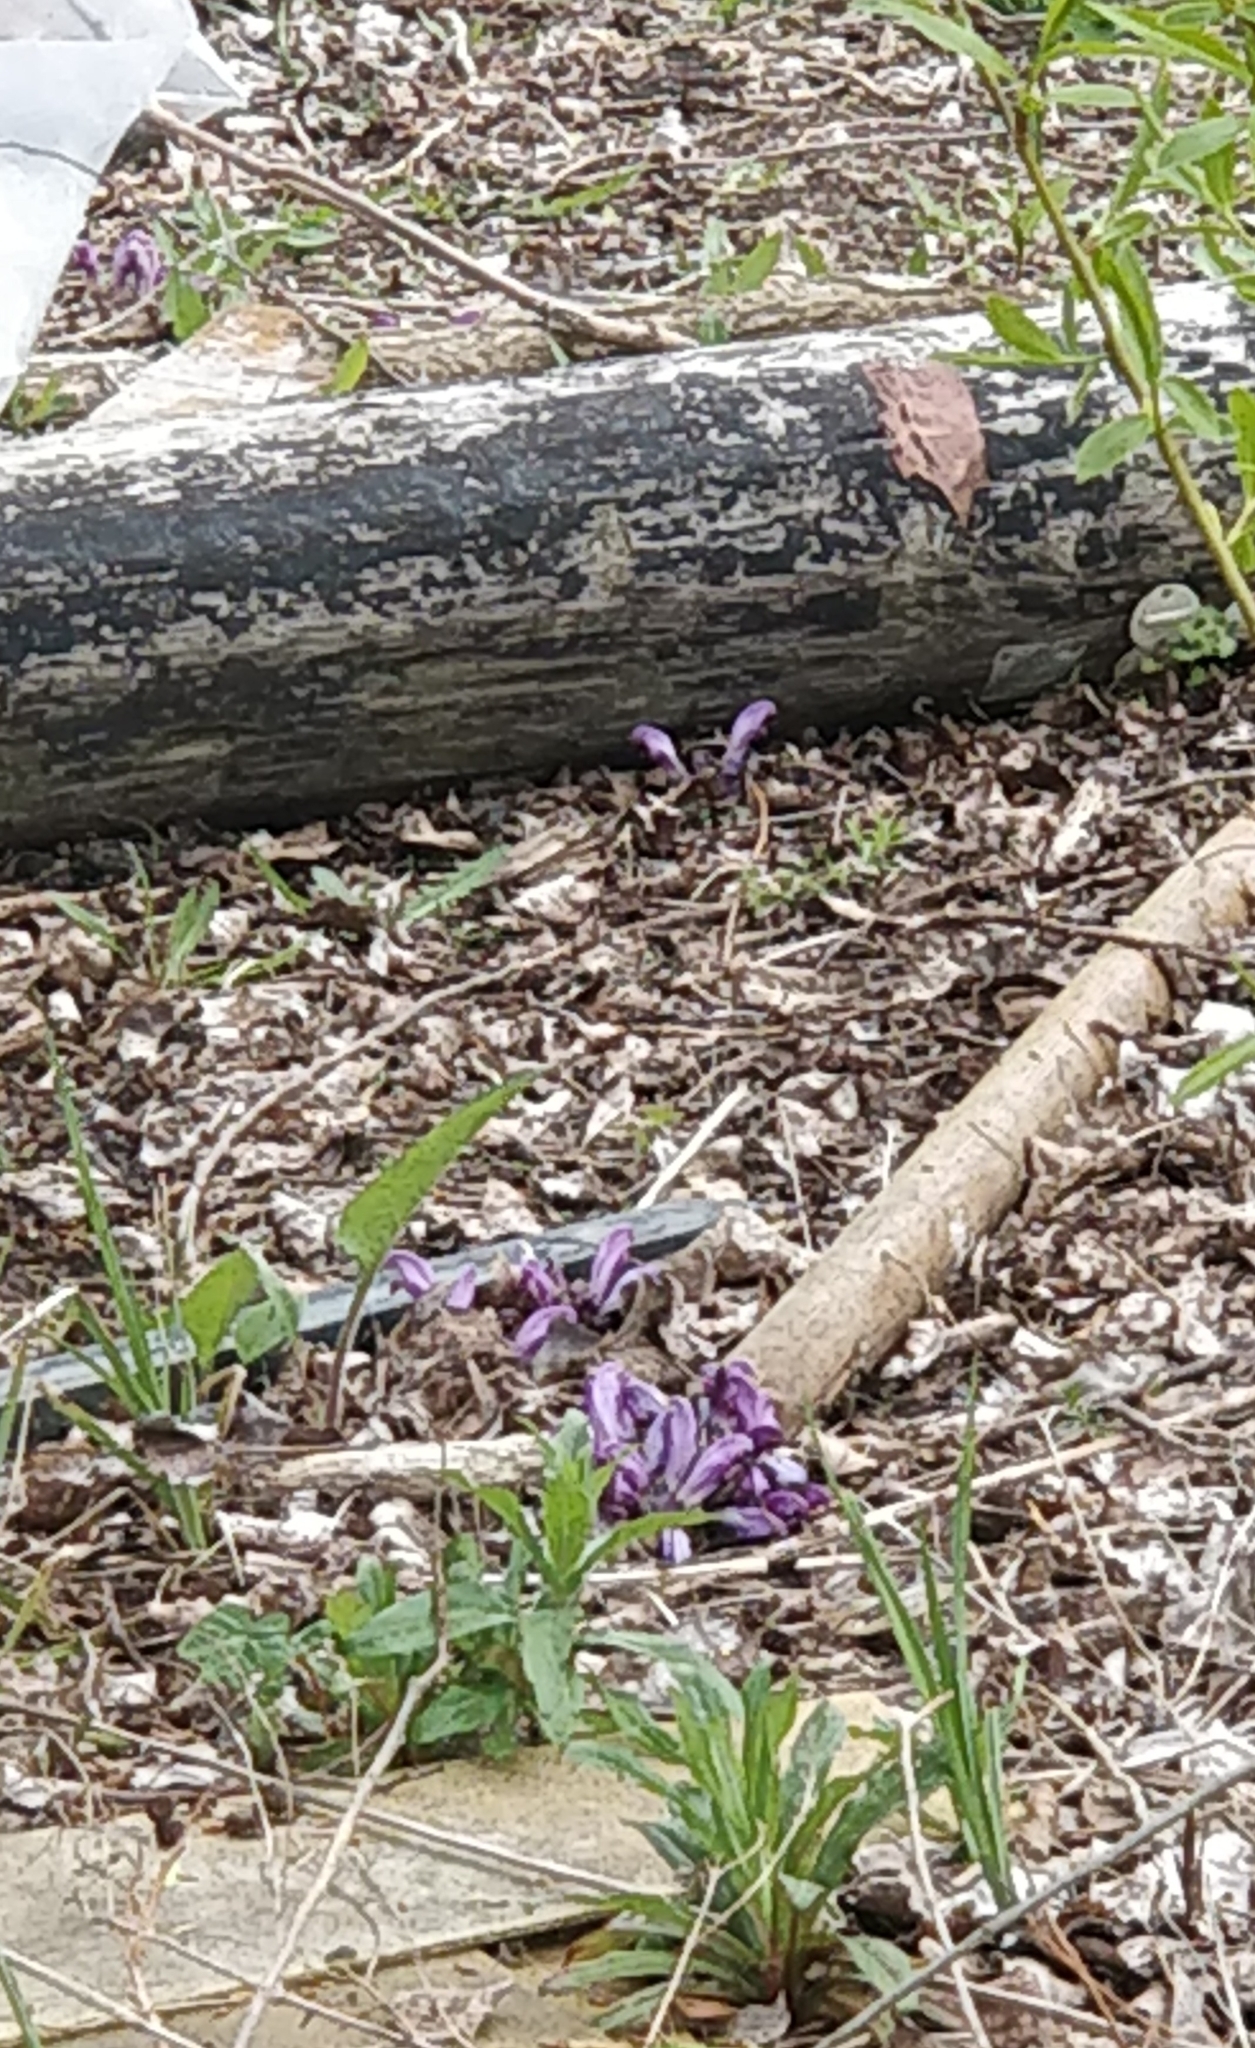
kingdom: Plantae
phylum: Tracheophyta
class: Magnoliopsida
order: Lamiales
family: Orobanchaceae
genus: Lathraea
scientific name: Lathraea clandestina
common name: Purple toothwort
